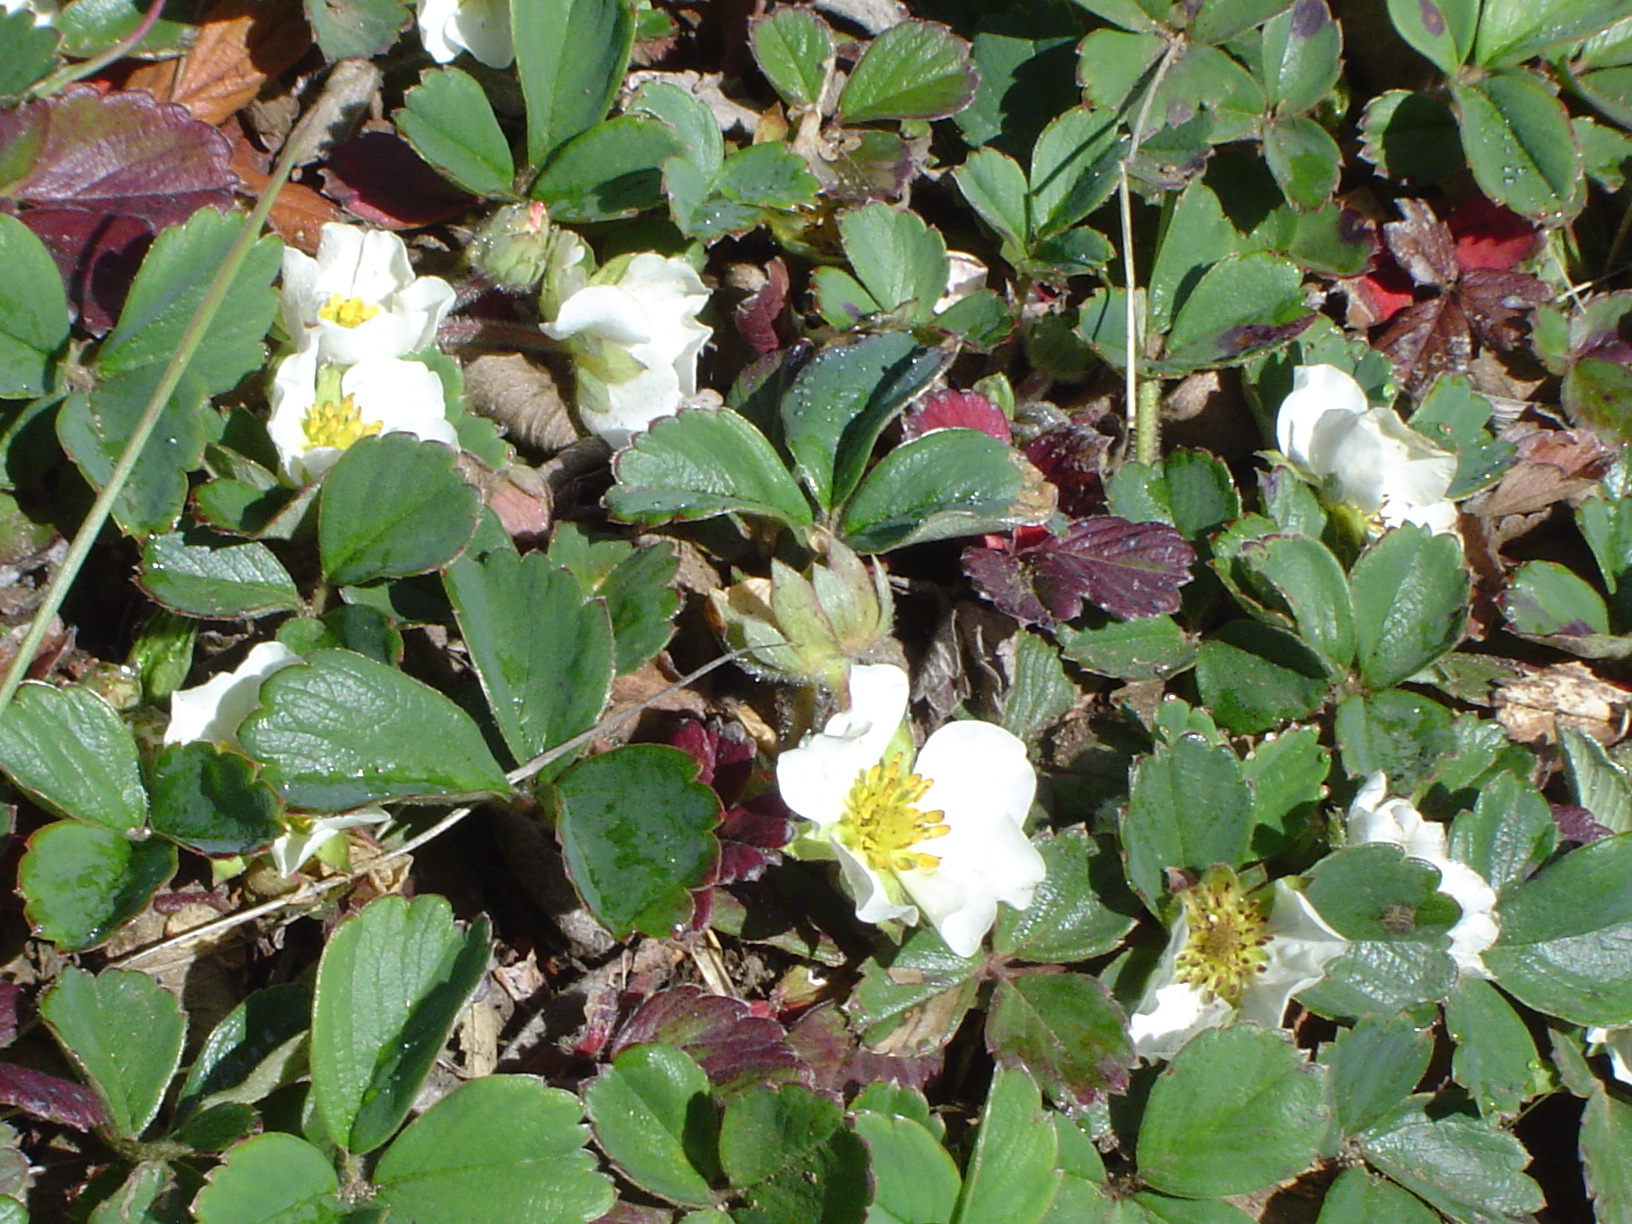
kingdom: Plantae
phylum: Tracheophyta
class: Magnoliopsida
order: Rosales
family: Rosaceae
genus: Fragaria
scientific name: Fragaria chiloensis
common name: Beach strawberry
